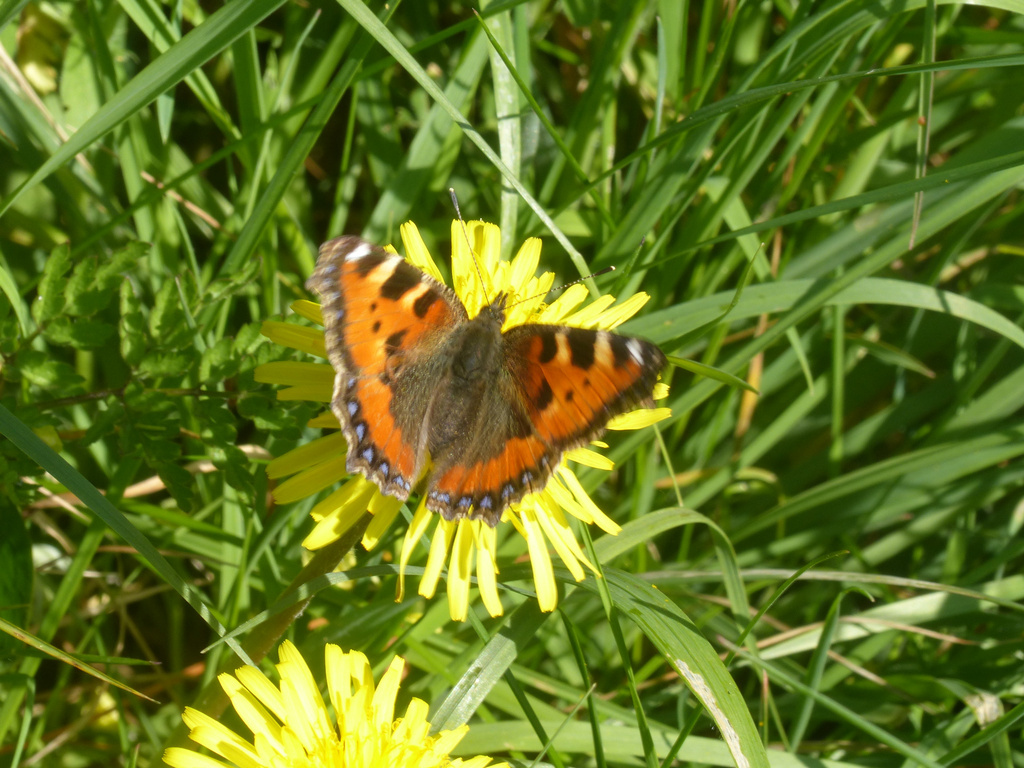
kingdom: Animalia
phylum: Arthropoda
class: Insecta
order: Lepidoptera
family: Nymphalidae
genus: Aglais
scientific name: Aglais urticae
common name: Small tortoiseshell
